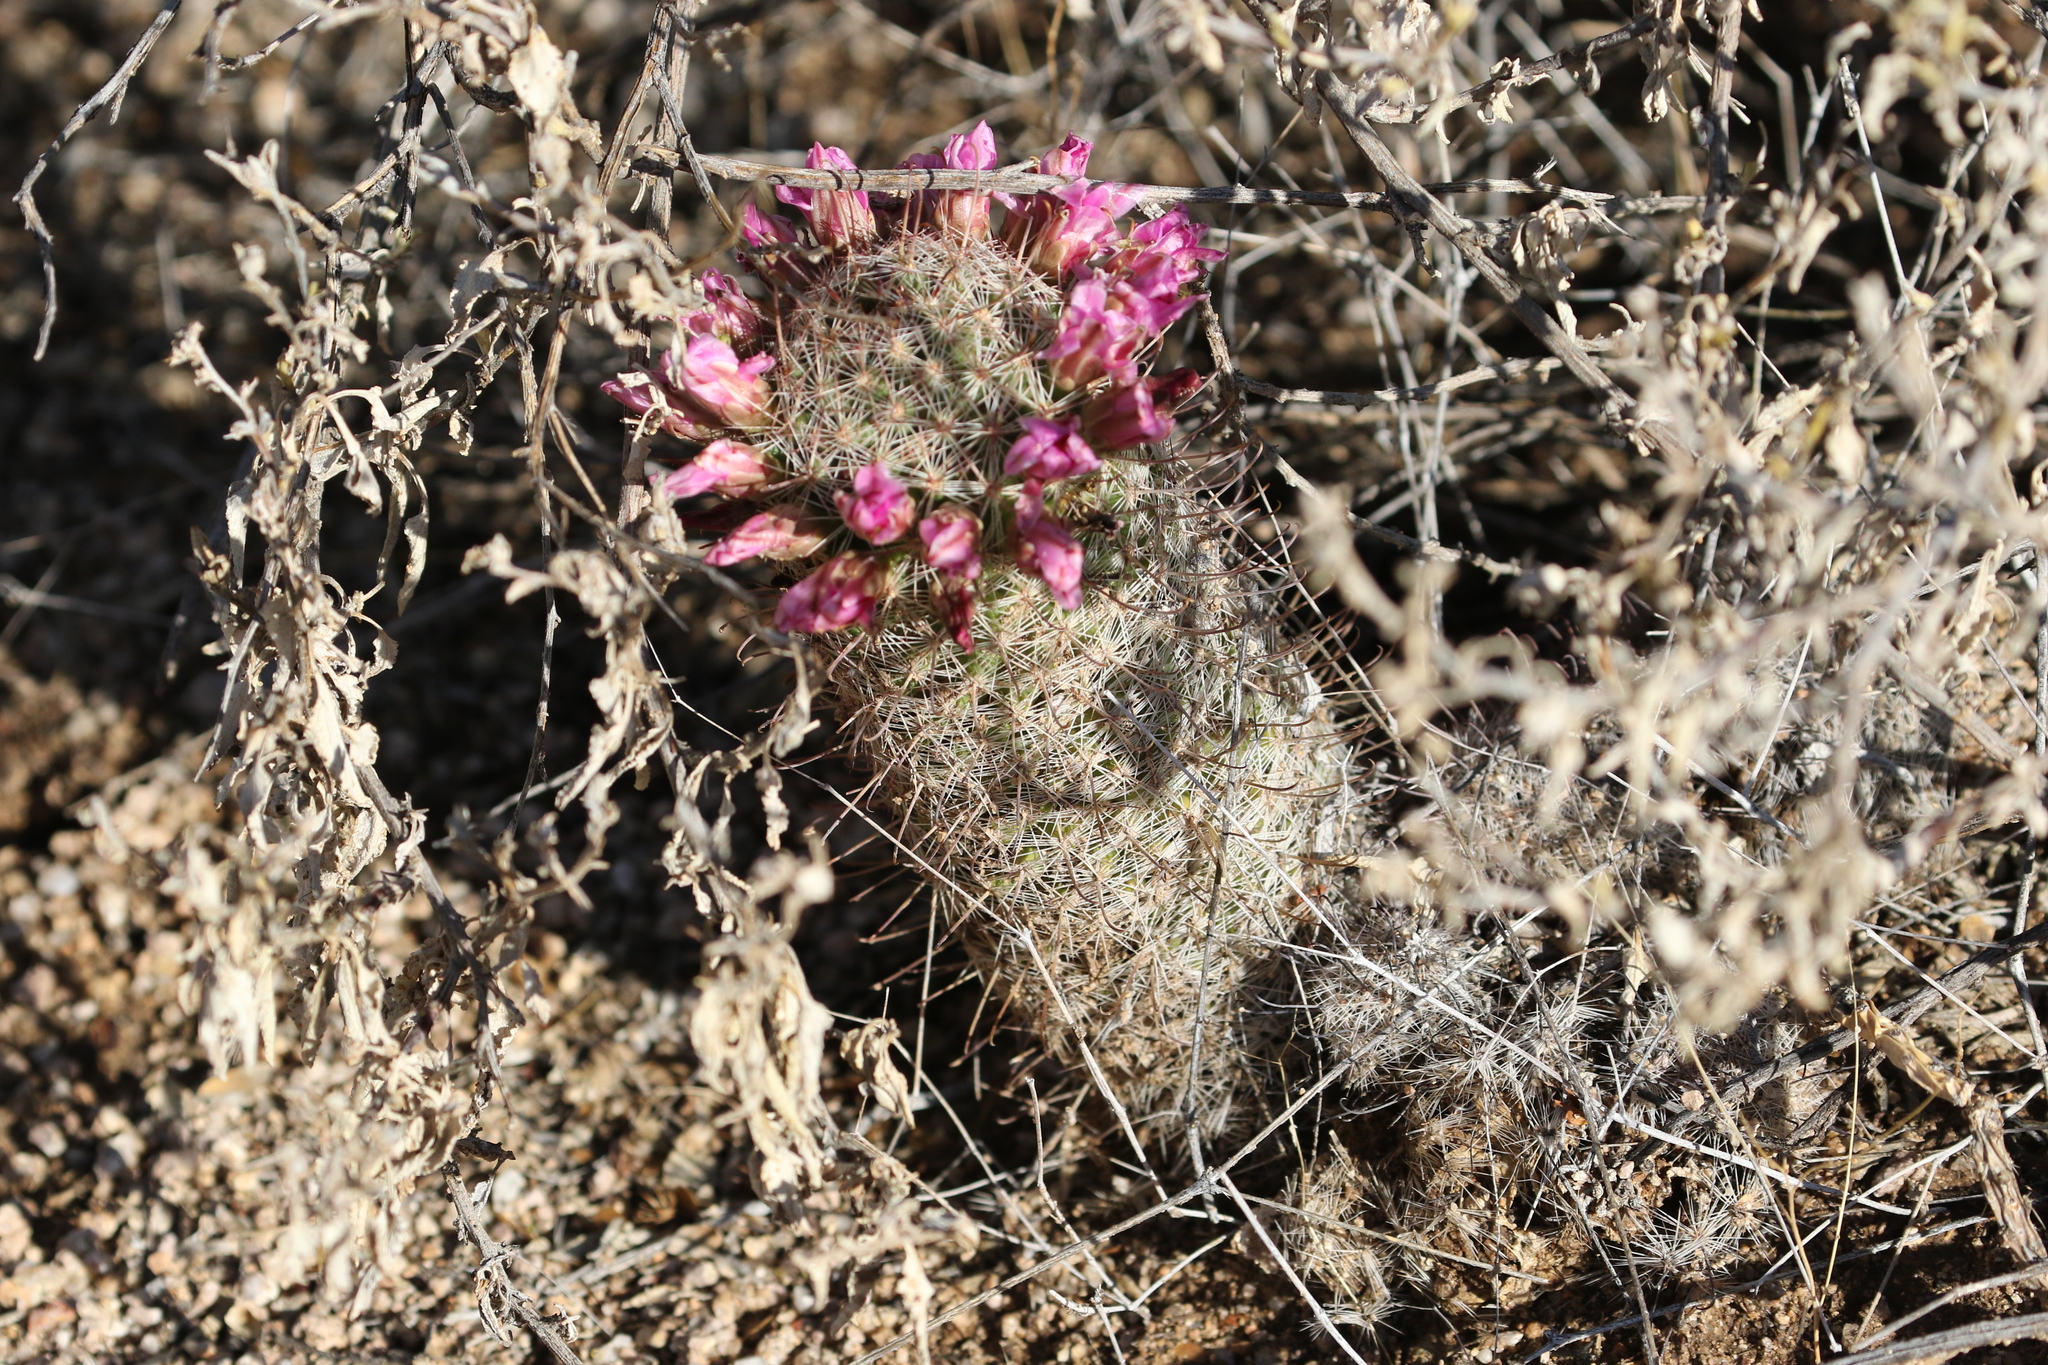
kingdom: Plantae
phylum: Tracheophyta
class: Magnoliopsida
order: Caryophyllales
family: Cactaceae
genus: Cochemiea
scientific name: Cochemiea grahamii
